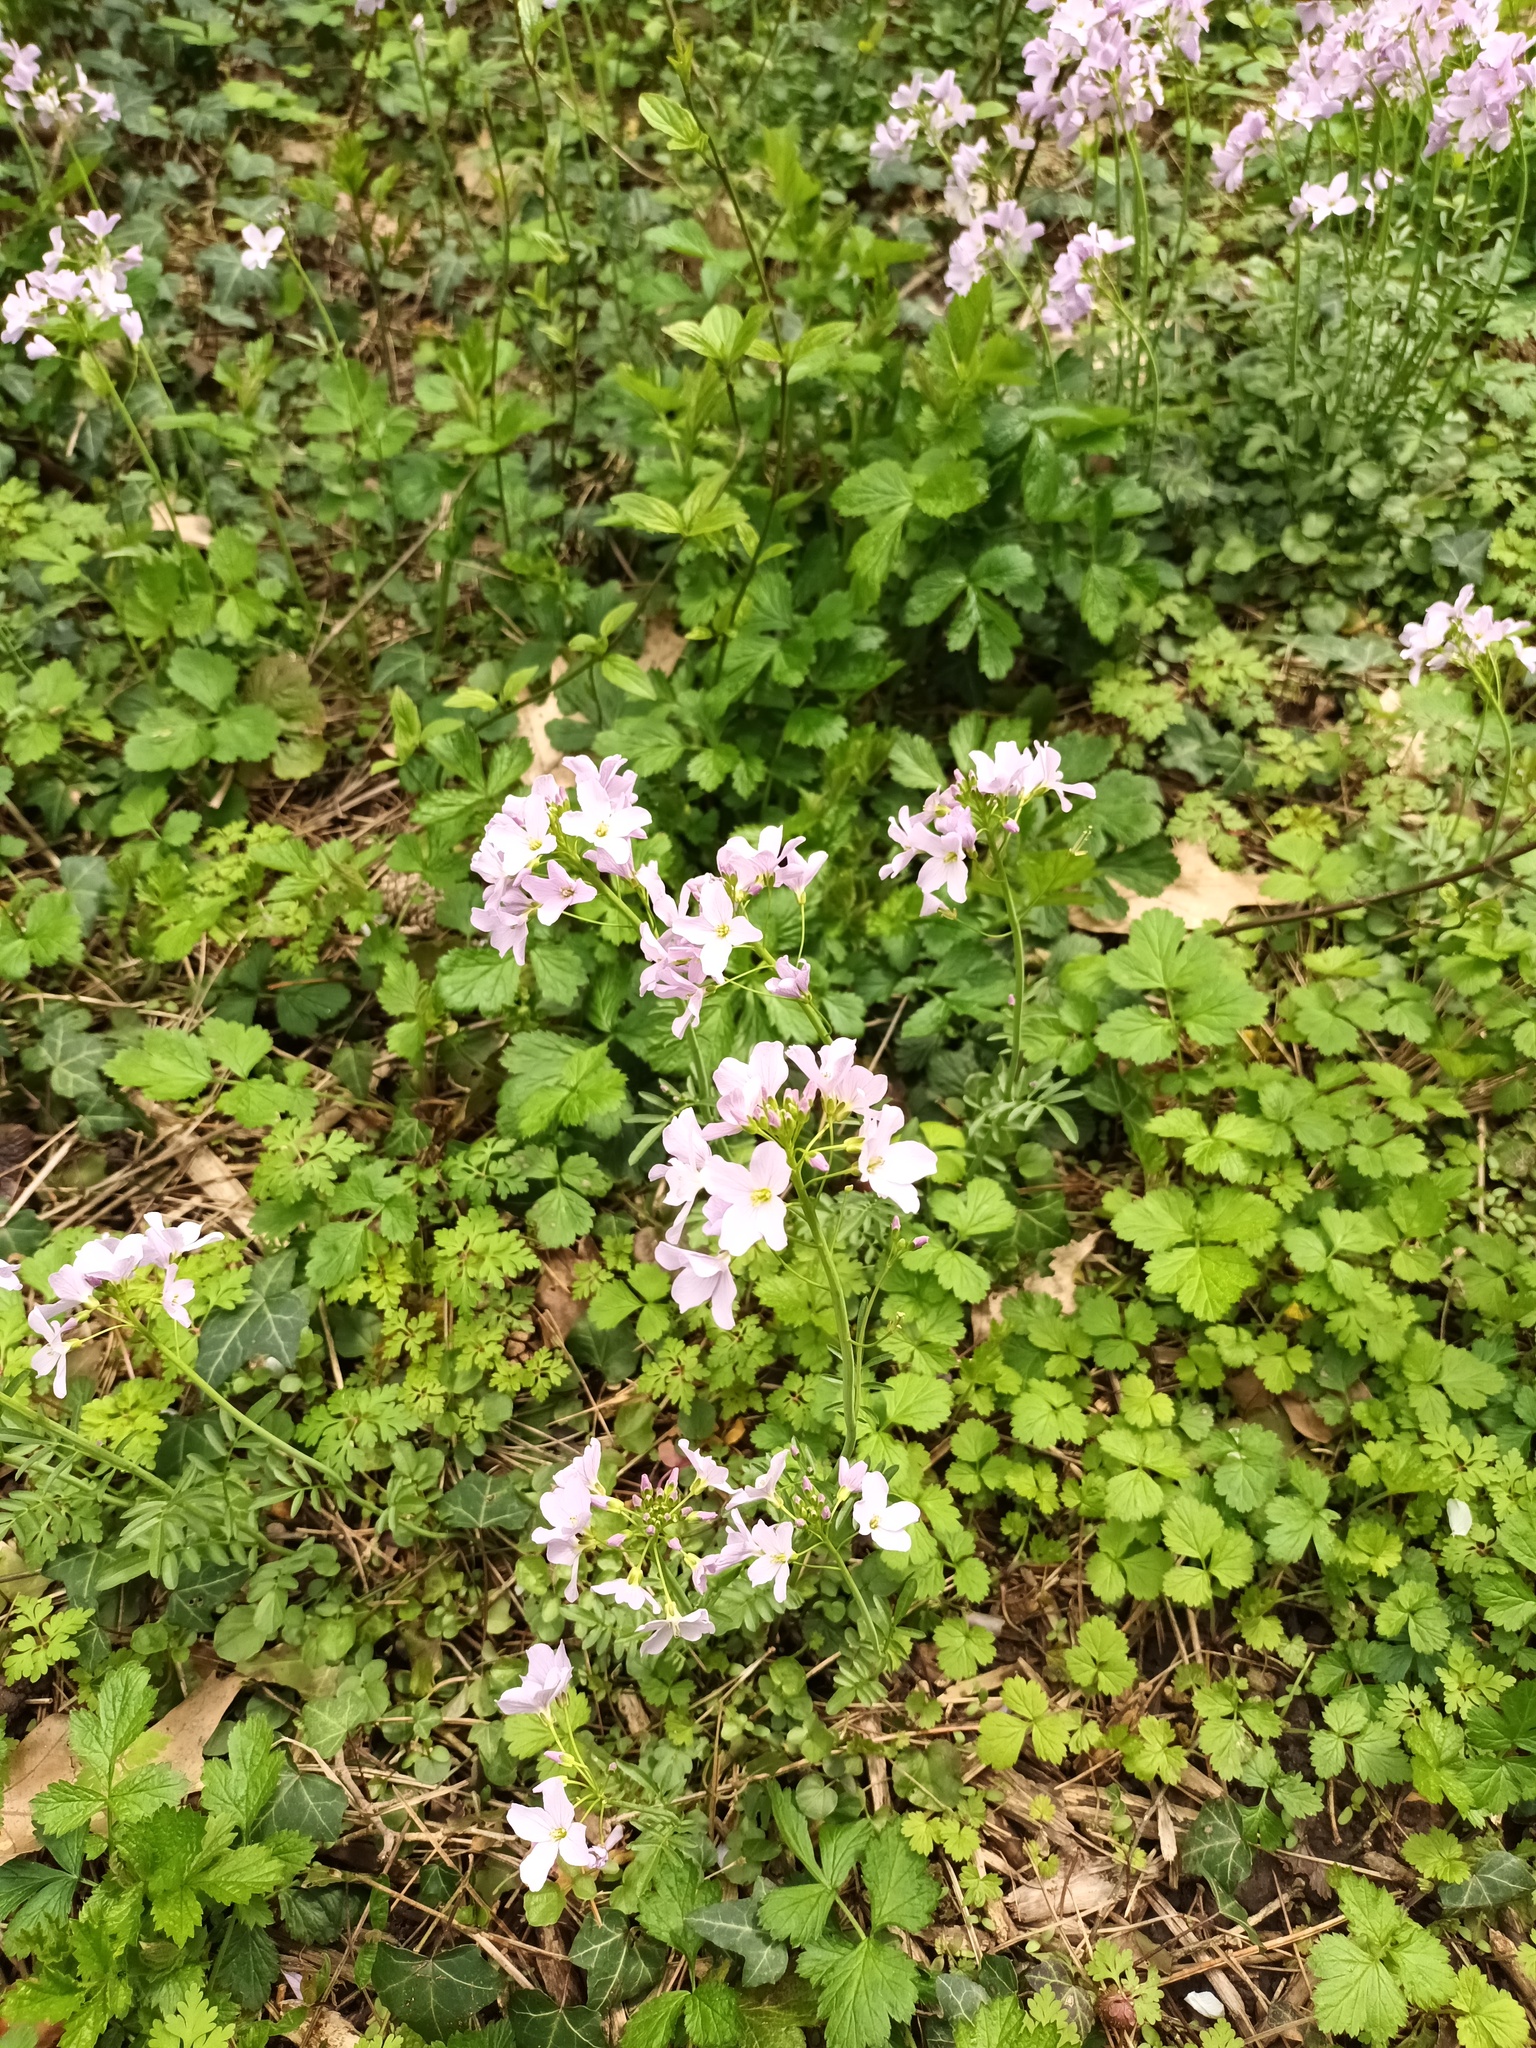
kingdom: Plantae
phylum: Tracheophyta
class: Magnoliopsida
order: Brassicales
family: Brassicaceae
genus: Cardamine
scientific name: Cardamine pratensis
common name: Cuckoo flower
